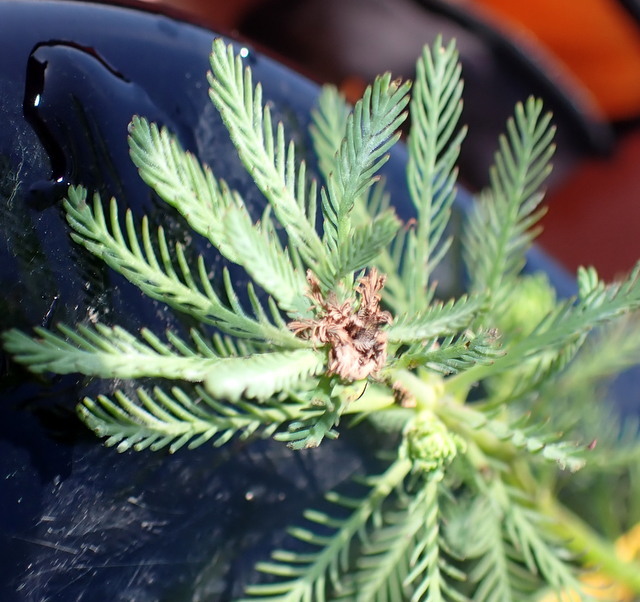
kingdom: Plantae
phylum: Tracheophyta
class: Magnoliopsida
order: Saxifragales
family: Haloragaceae
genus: Myriophyllum
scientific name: Myriophyllum aquaticum
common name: Parrot's feather
